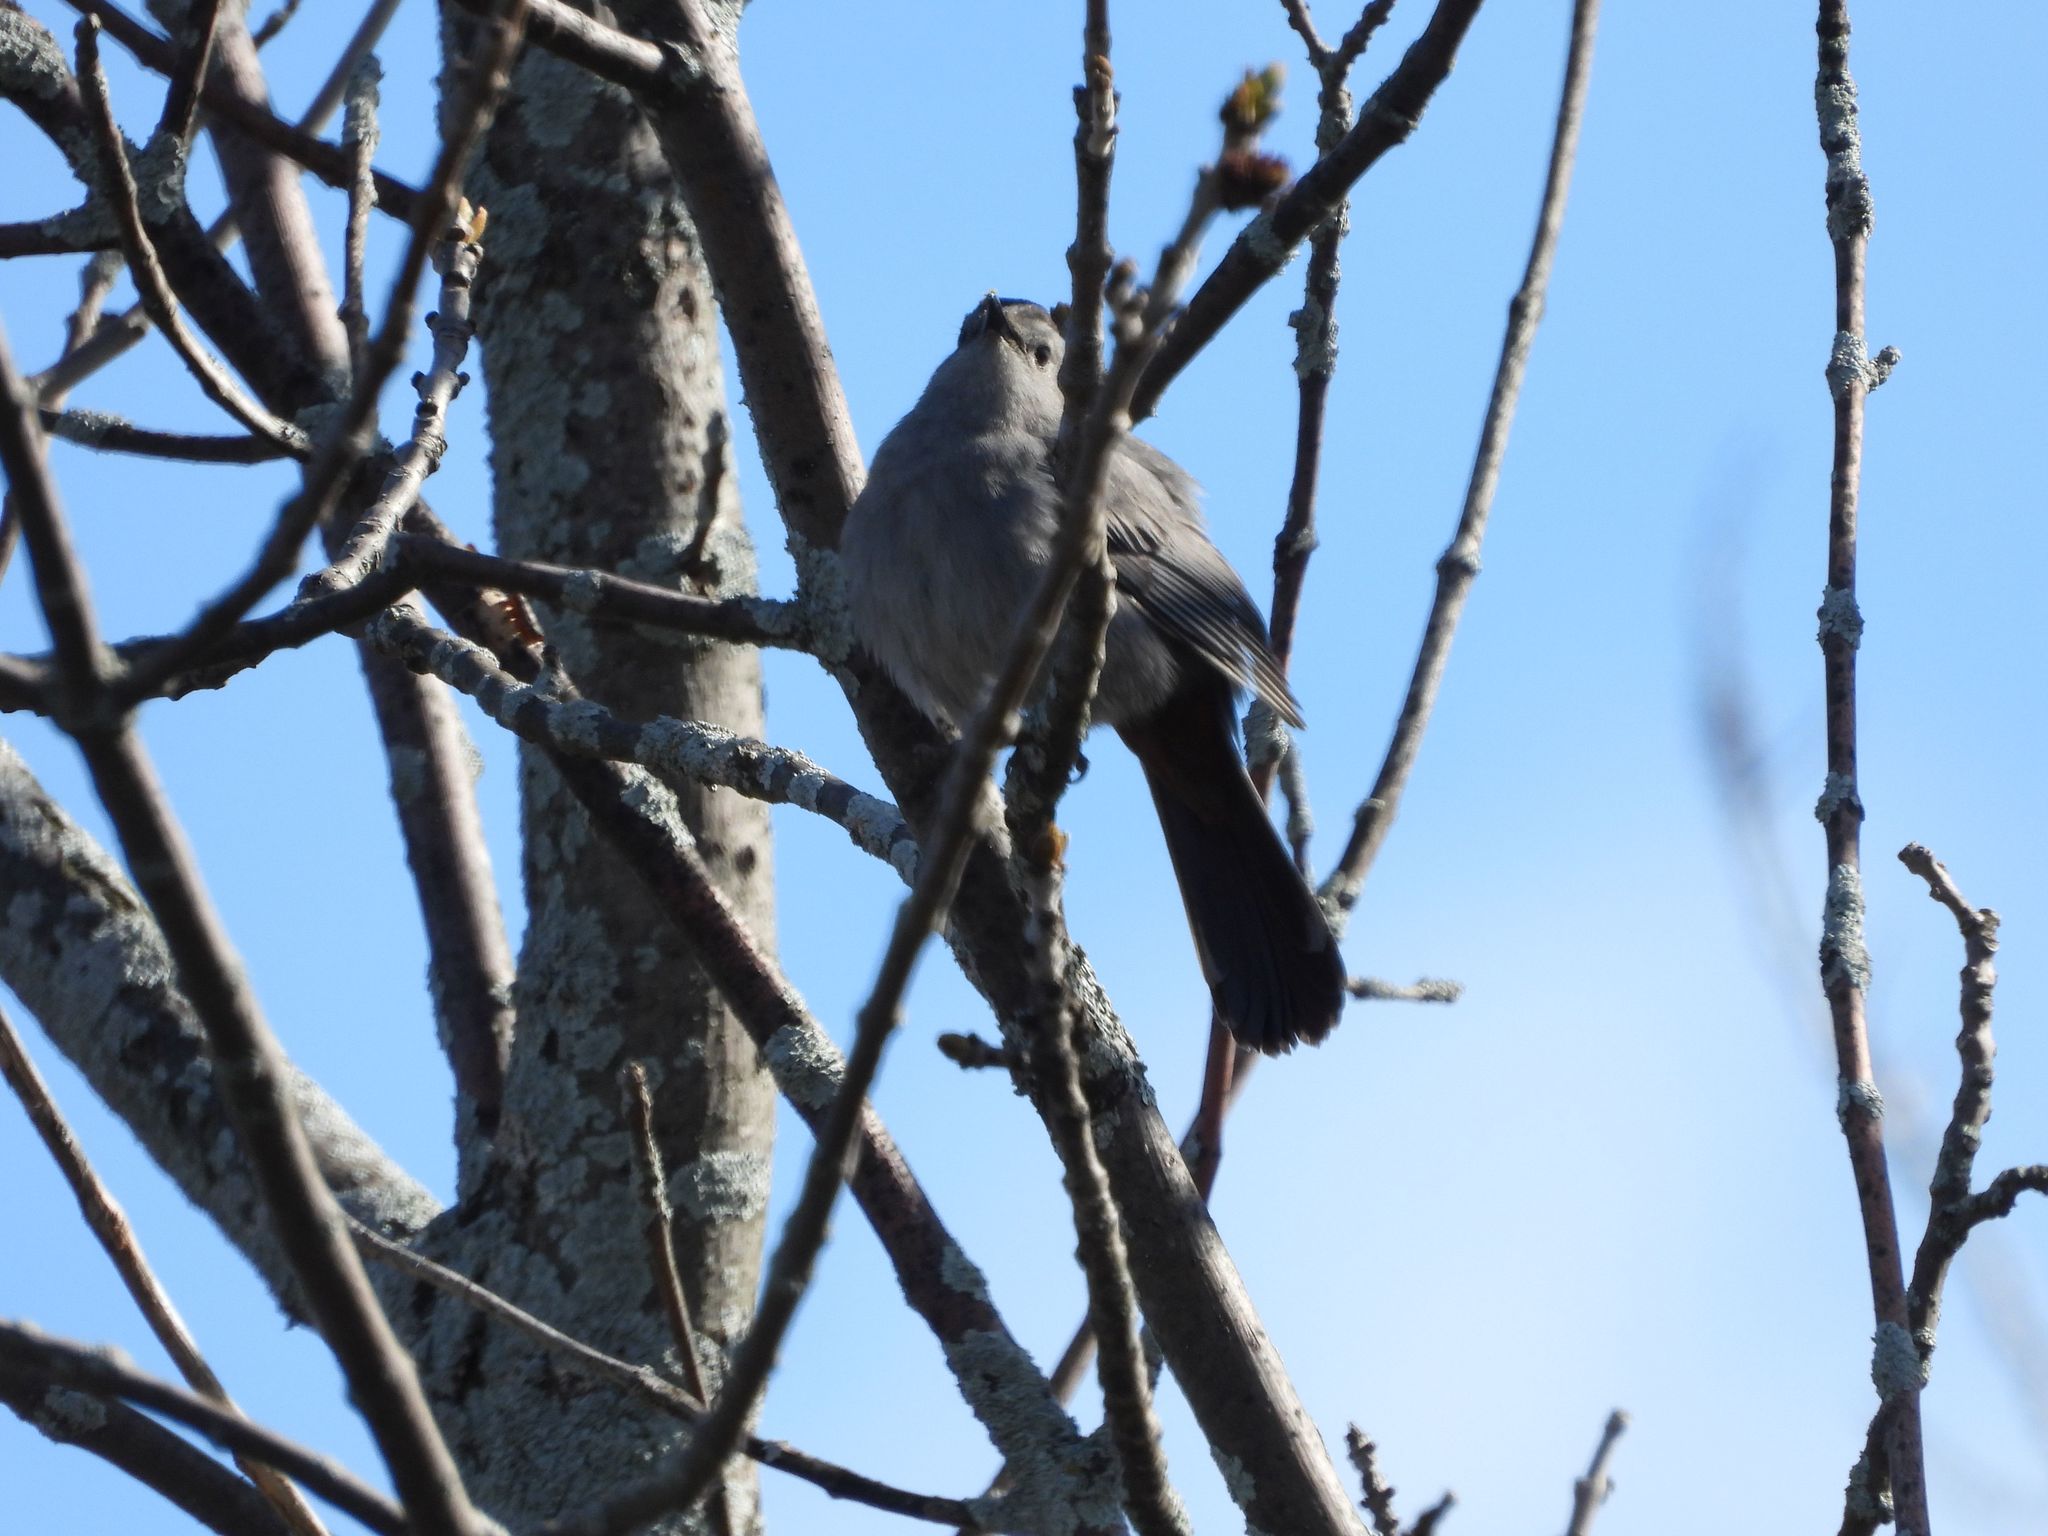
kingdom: Animalia
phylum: Chordata
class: Aves
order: Passeriformes
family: Mimidae
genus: Dumetella
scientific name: Dumetella carolinensis
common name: Gray catbird
